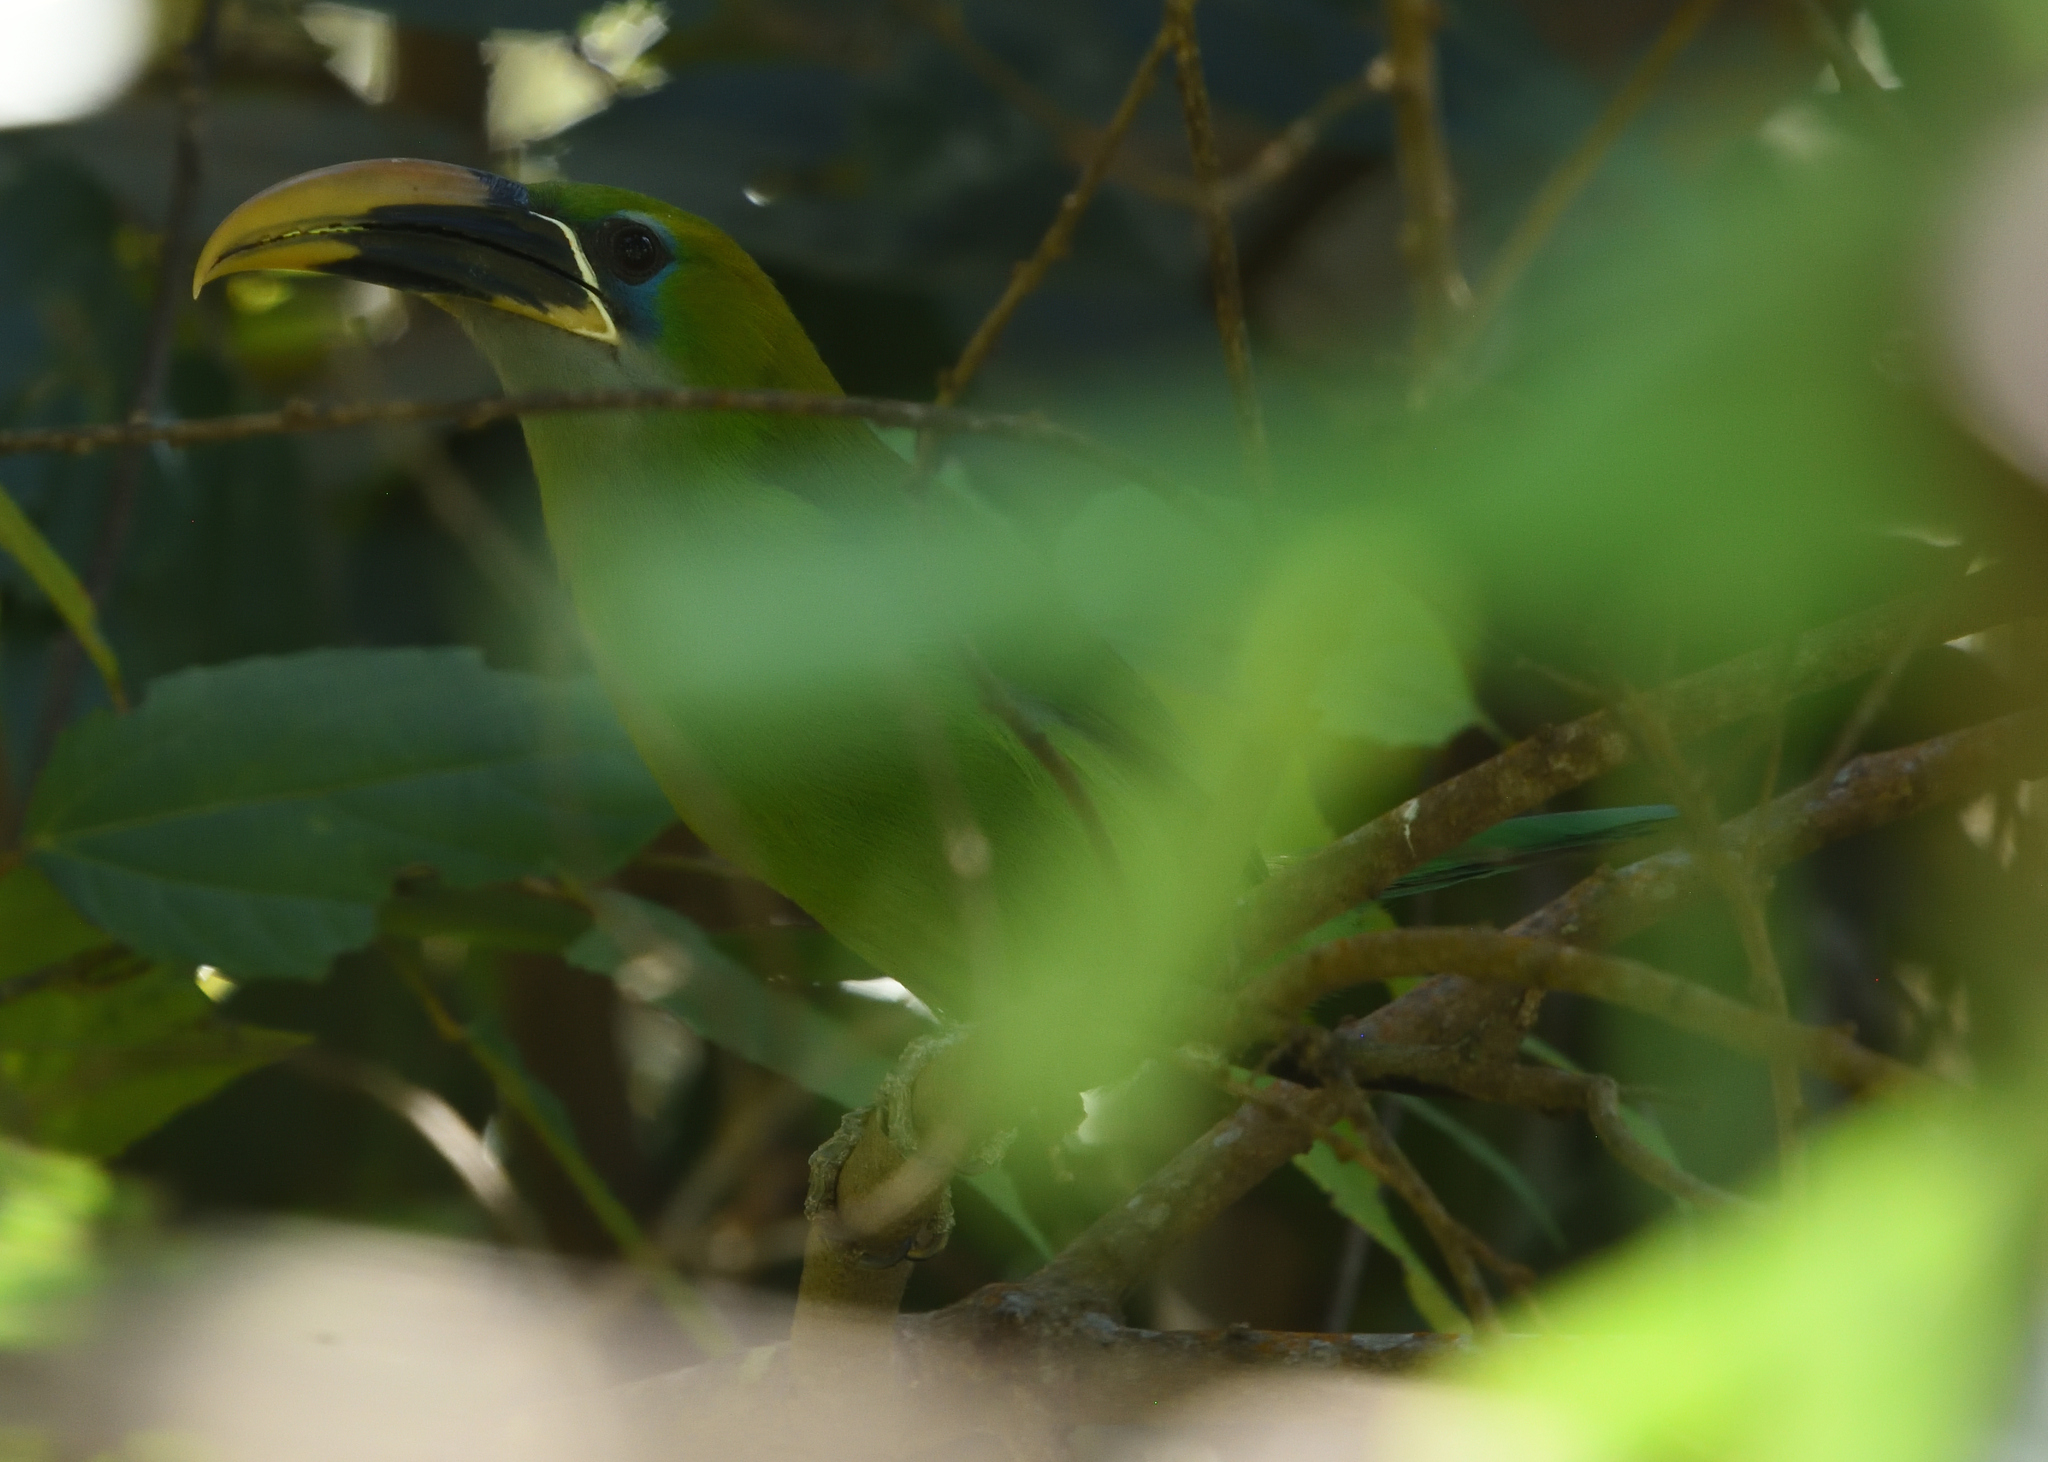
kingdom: Animalia
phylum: Chordata
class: Aves
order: Piciformes
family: Ramphastidae
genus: Aulacorhynchus
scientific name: Aulacorhynchus sulcatus
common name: Groove-billed toucanet
